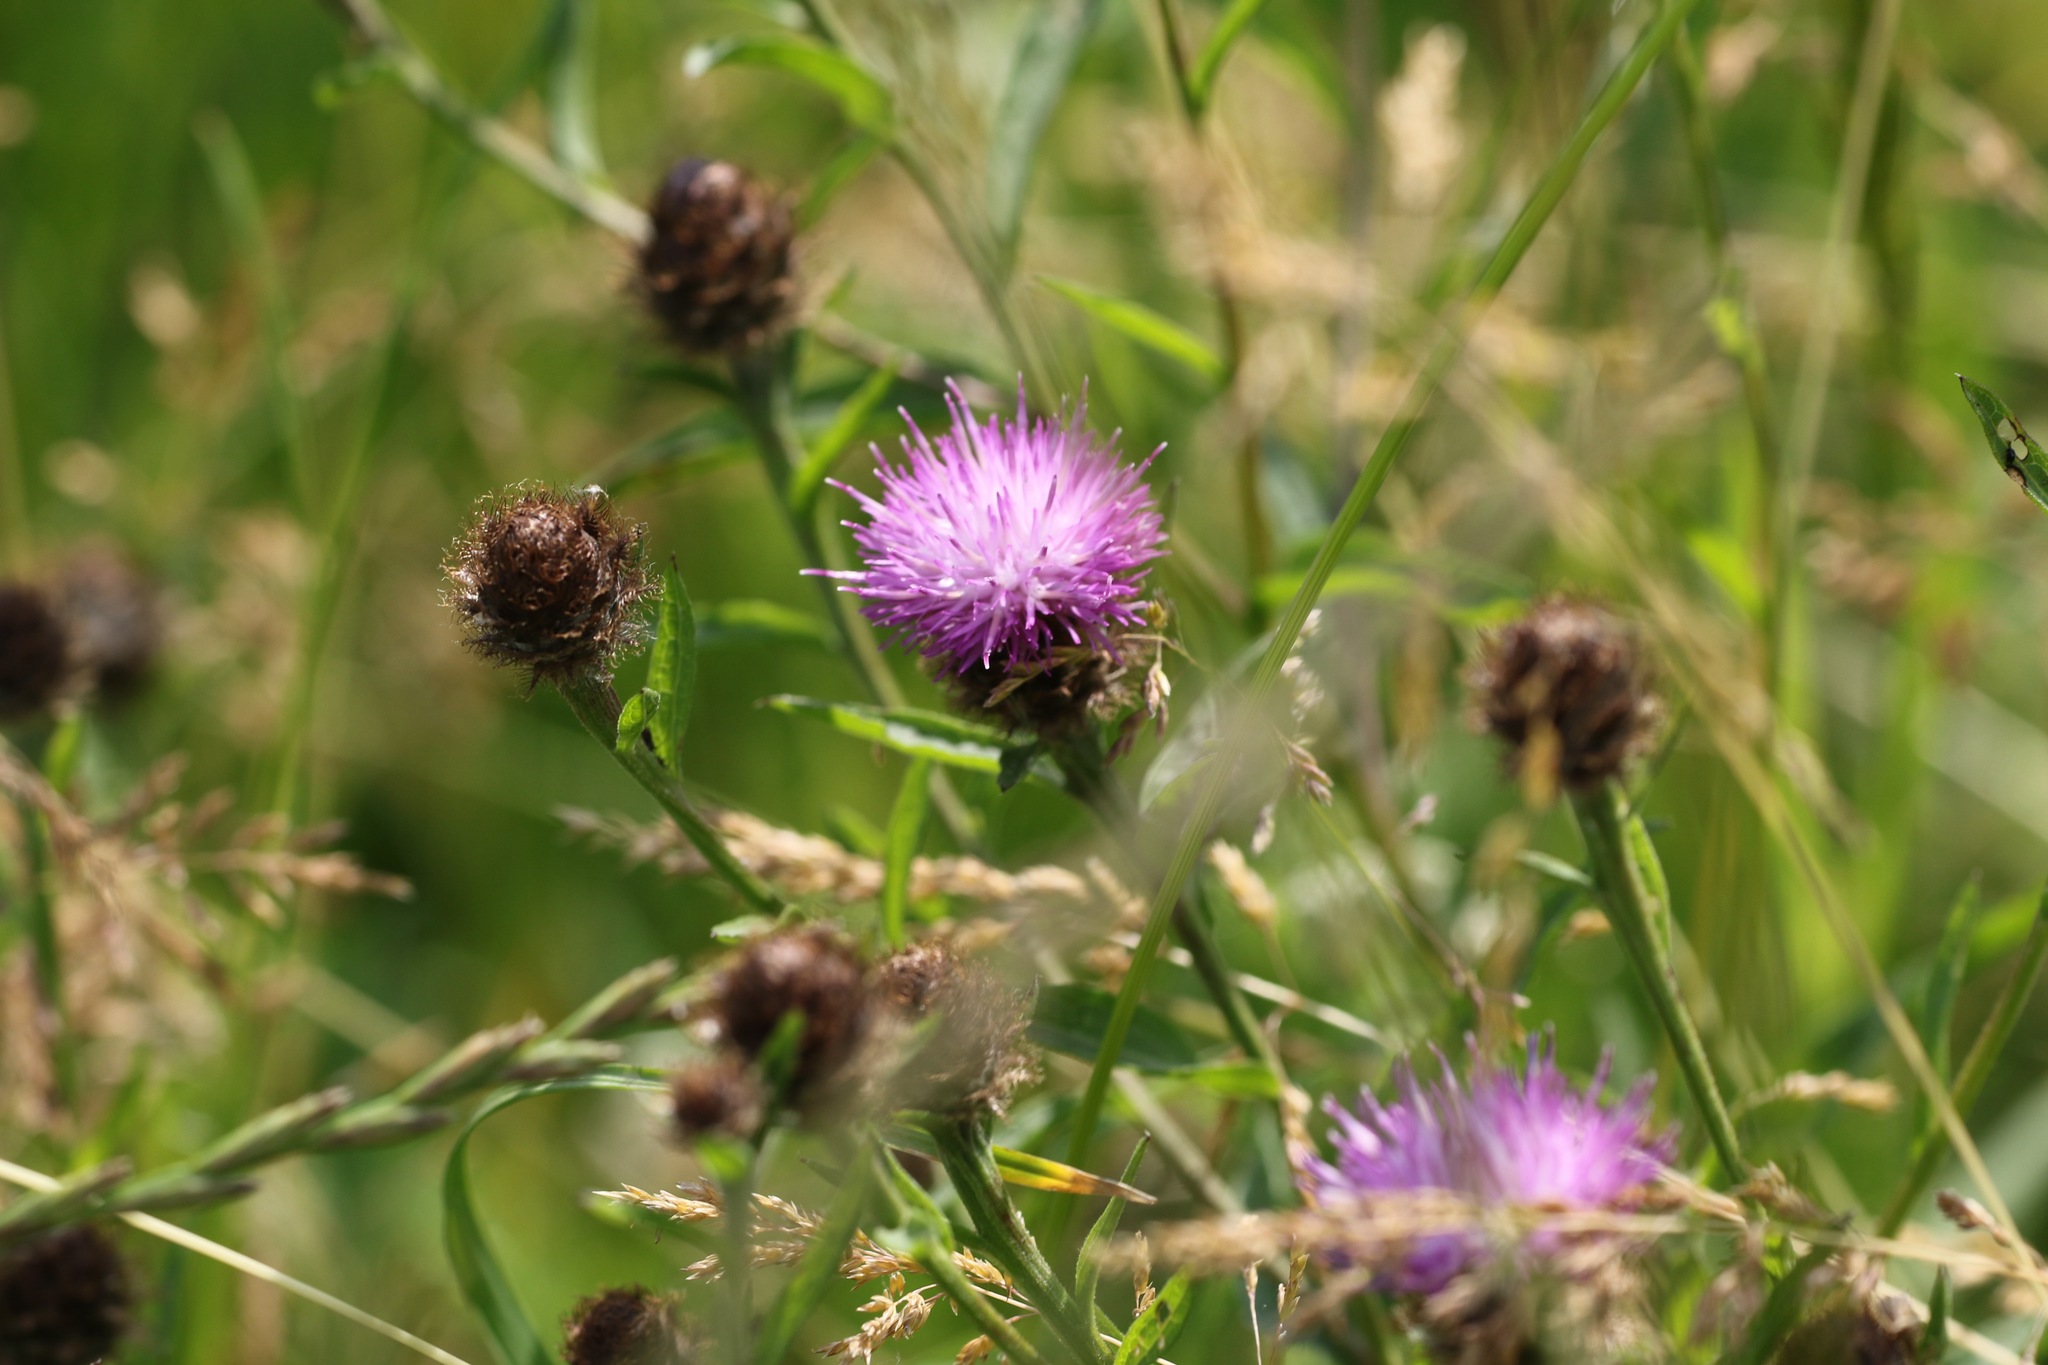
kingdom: Plantae
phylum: Tracheophyta
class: Magnoliopsida
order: Asterales
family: Asteraceae
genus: Centaurea
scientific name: Centaurea nigra
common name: Lesser knapweed
